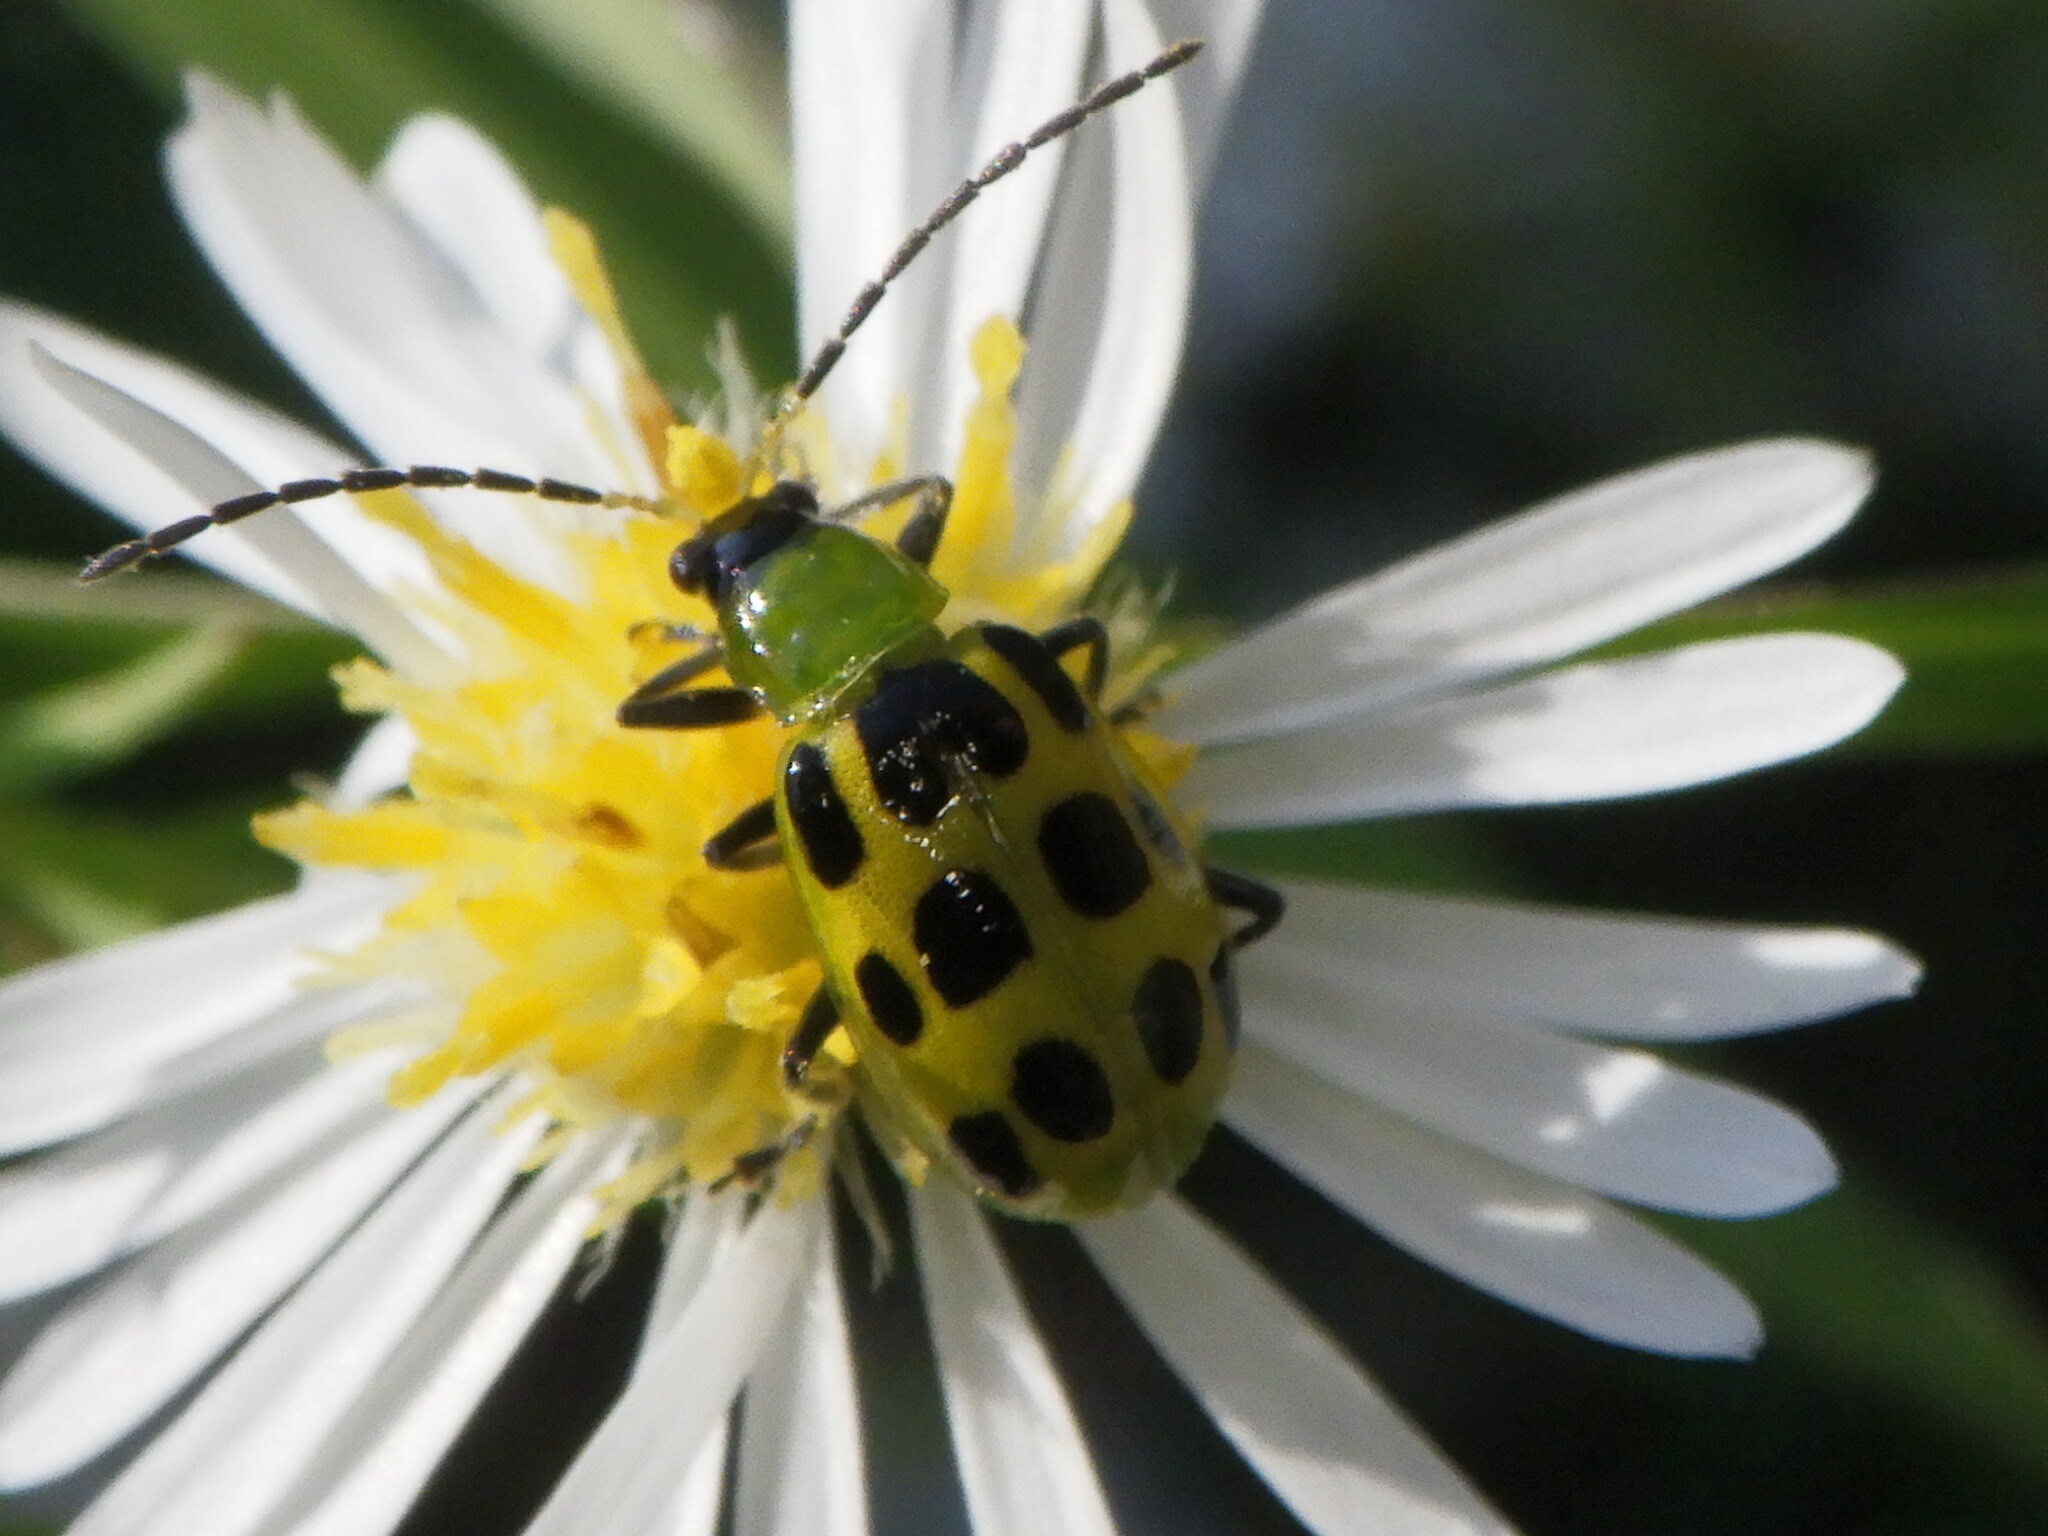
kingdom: Animalia
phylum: Arthropoda
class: Insecta
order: Coleoptera
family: Chrysomelidae
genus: Diabrotica
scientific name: Diabrotica undecimpunctata
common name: Spotted cucumber beetle
